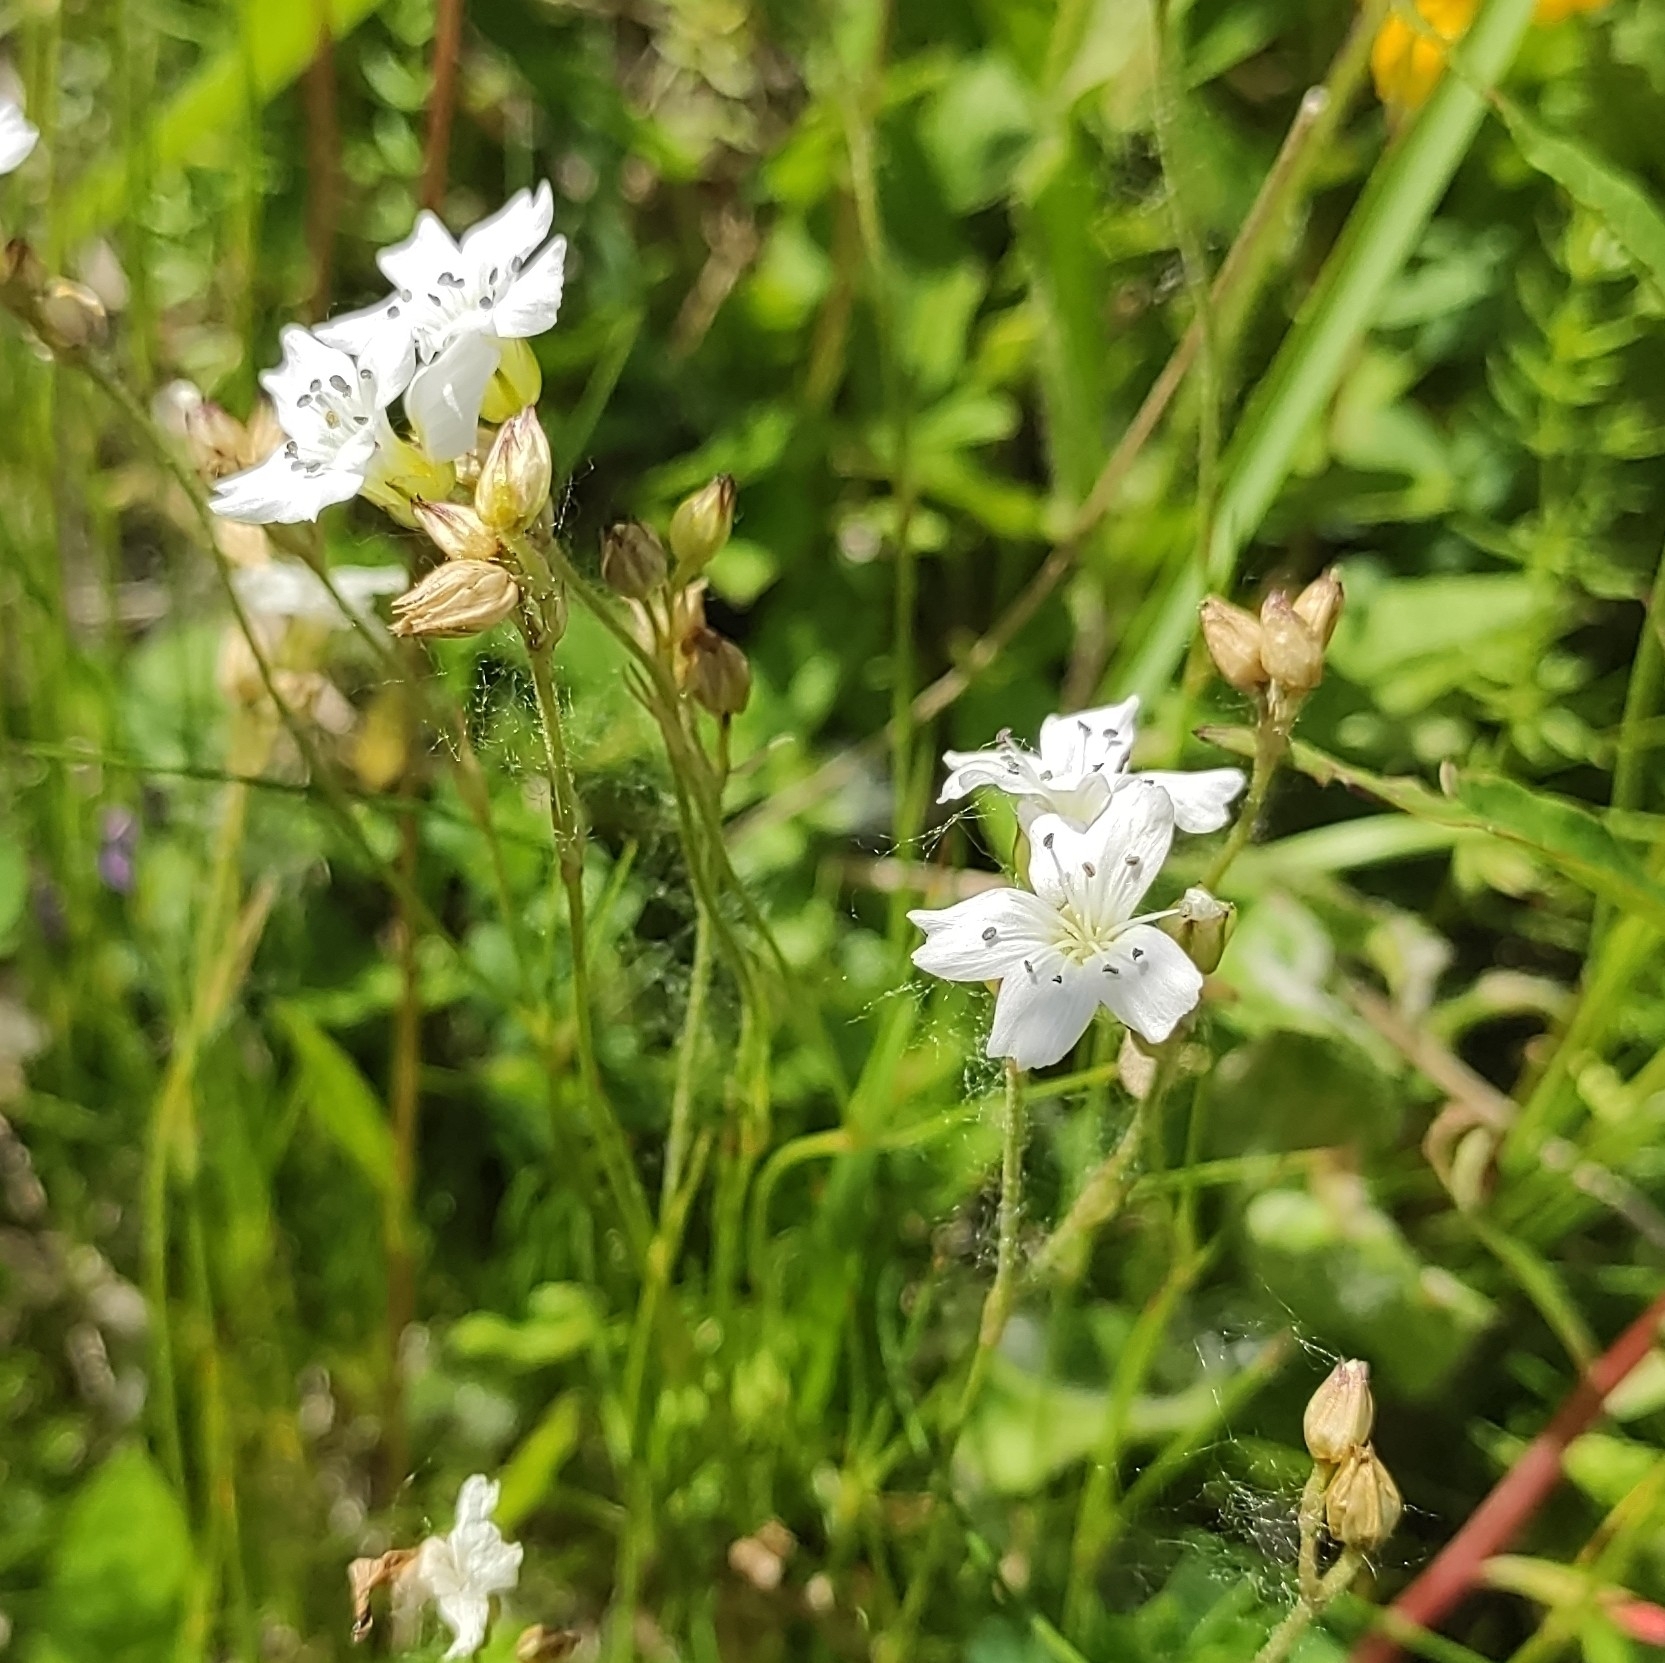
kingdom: Plantae
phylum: Tracheophyta
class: Magnoliopsida
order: Caryophyllales
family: Caryophyllaceae
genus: Eremogone
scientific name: Eremogone lychnidea
